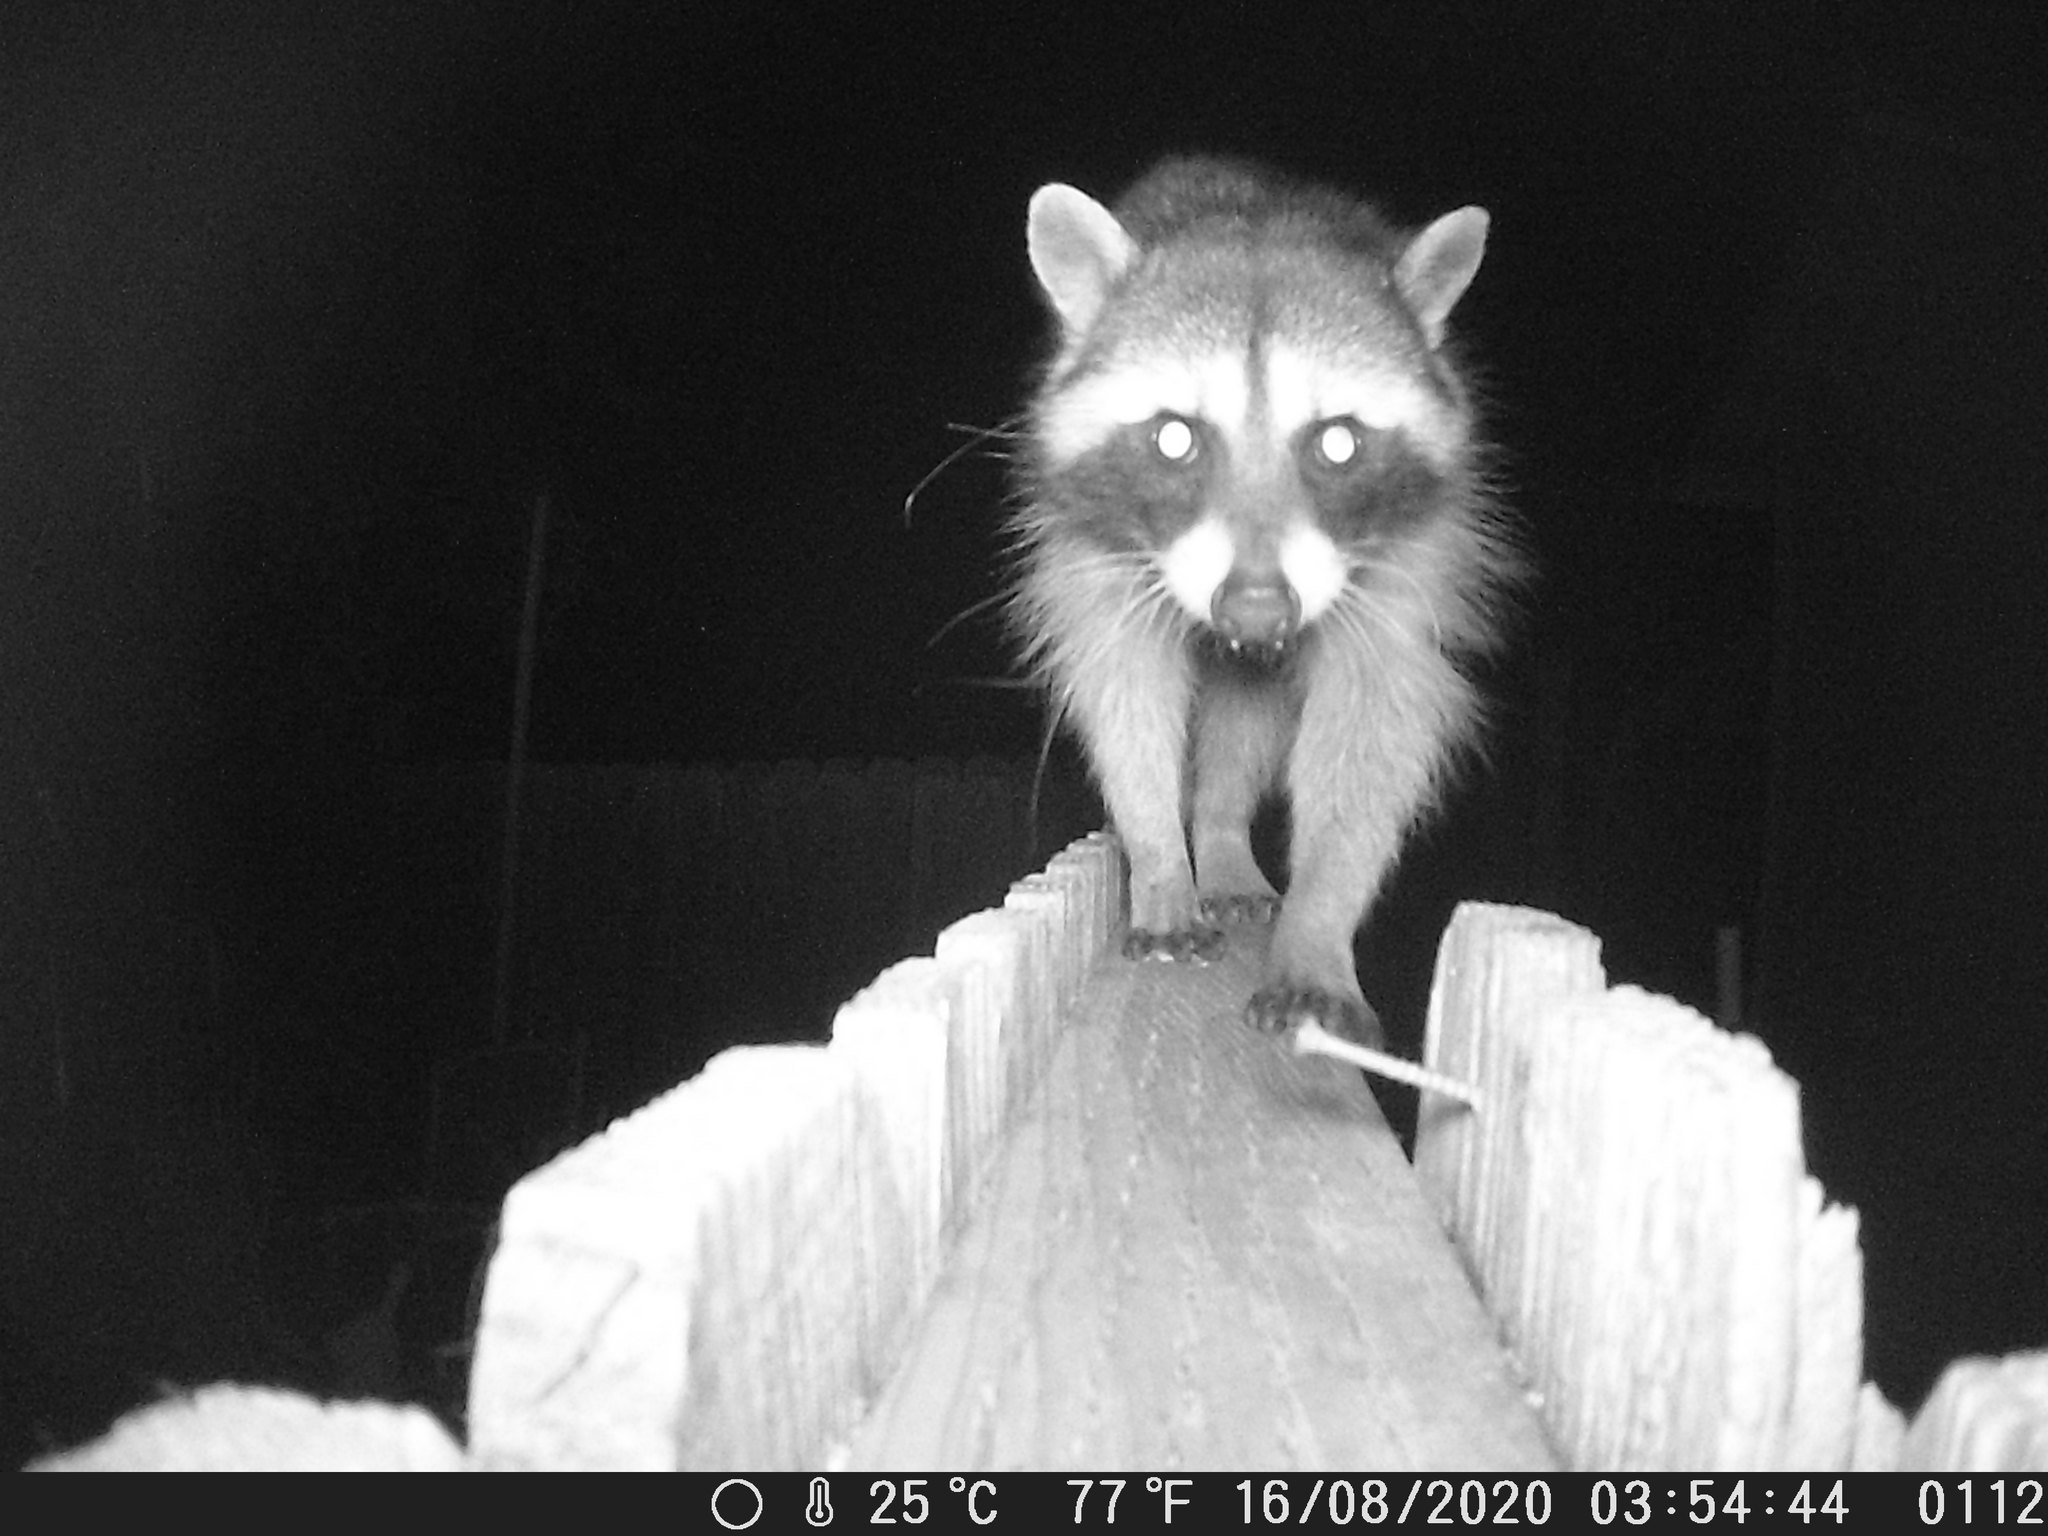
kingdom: Animalia
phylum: Chordata
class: Mammalia
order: Carnivora
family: Procyonidae
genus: Procyon
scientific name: Procyon lotor
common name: Raccoon
